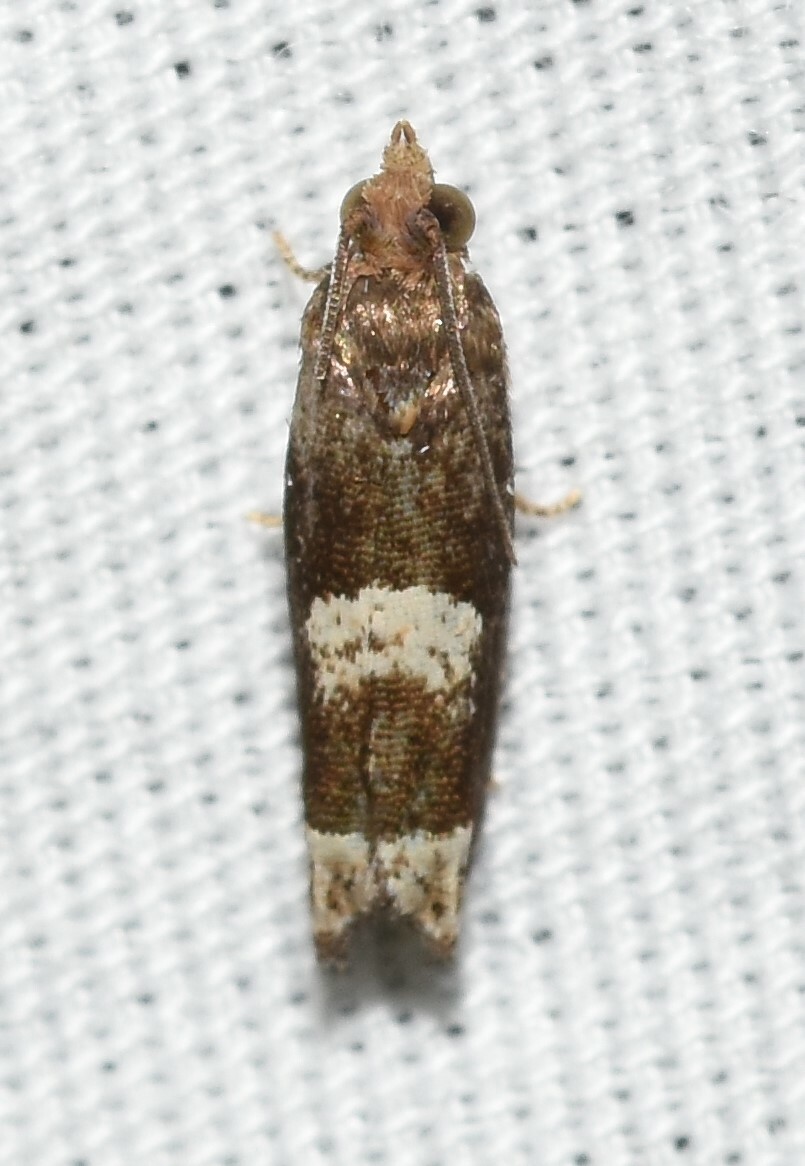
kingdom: Animalia
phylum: Arthropoda
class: Insecta
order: Lepidoptera
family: Tortricidae
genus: Eucosma
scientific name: Eucosma parmatana
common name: Aster eucosma moth
